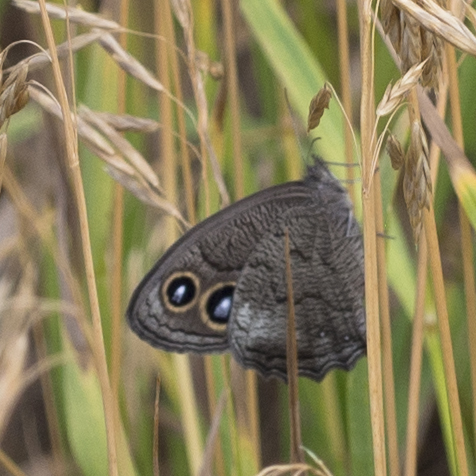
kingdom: Animalia
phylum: Arthropoda
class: Insecta
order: Lepidoptera
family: Nymphalidae
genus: Cercyonis
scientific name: Cercyonis pegala
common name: Common wood-nymph
